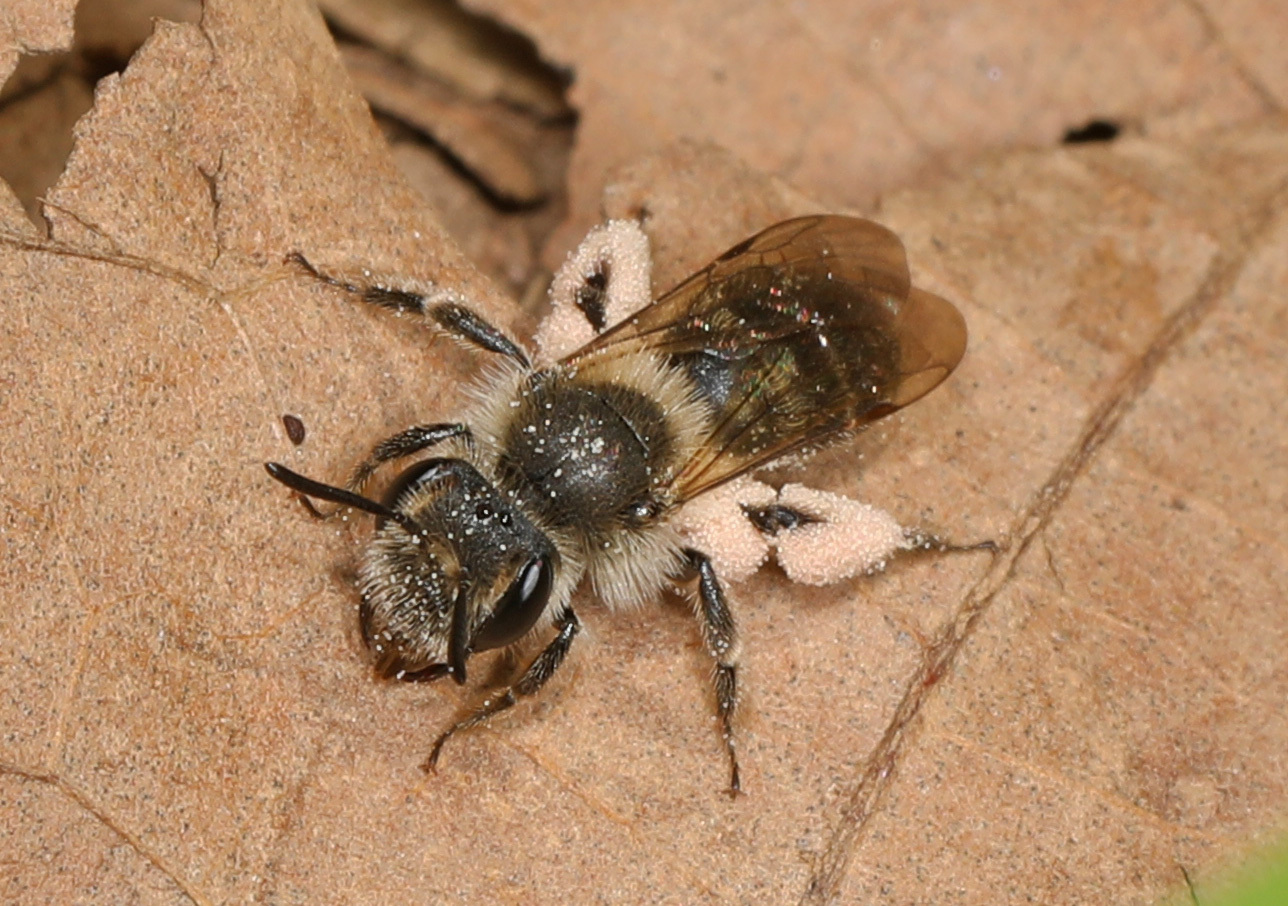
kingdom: Animalia
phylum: Arthropoda
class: Insecta
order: Hymenoptera
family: Andrenidae
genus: Andrena
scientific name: Andrena erigeniae
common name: Spring beauty miner
